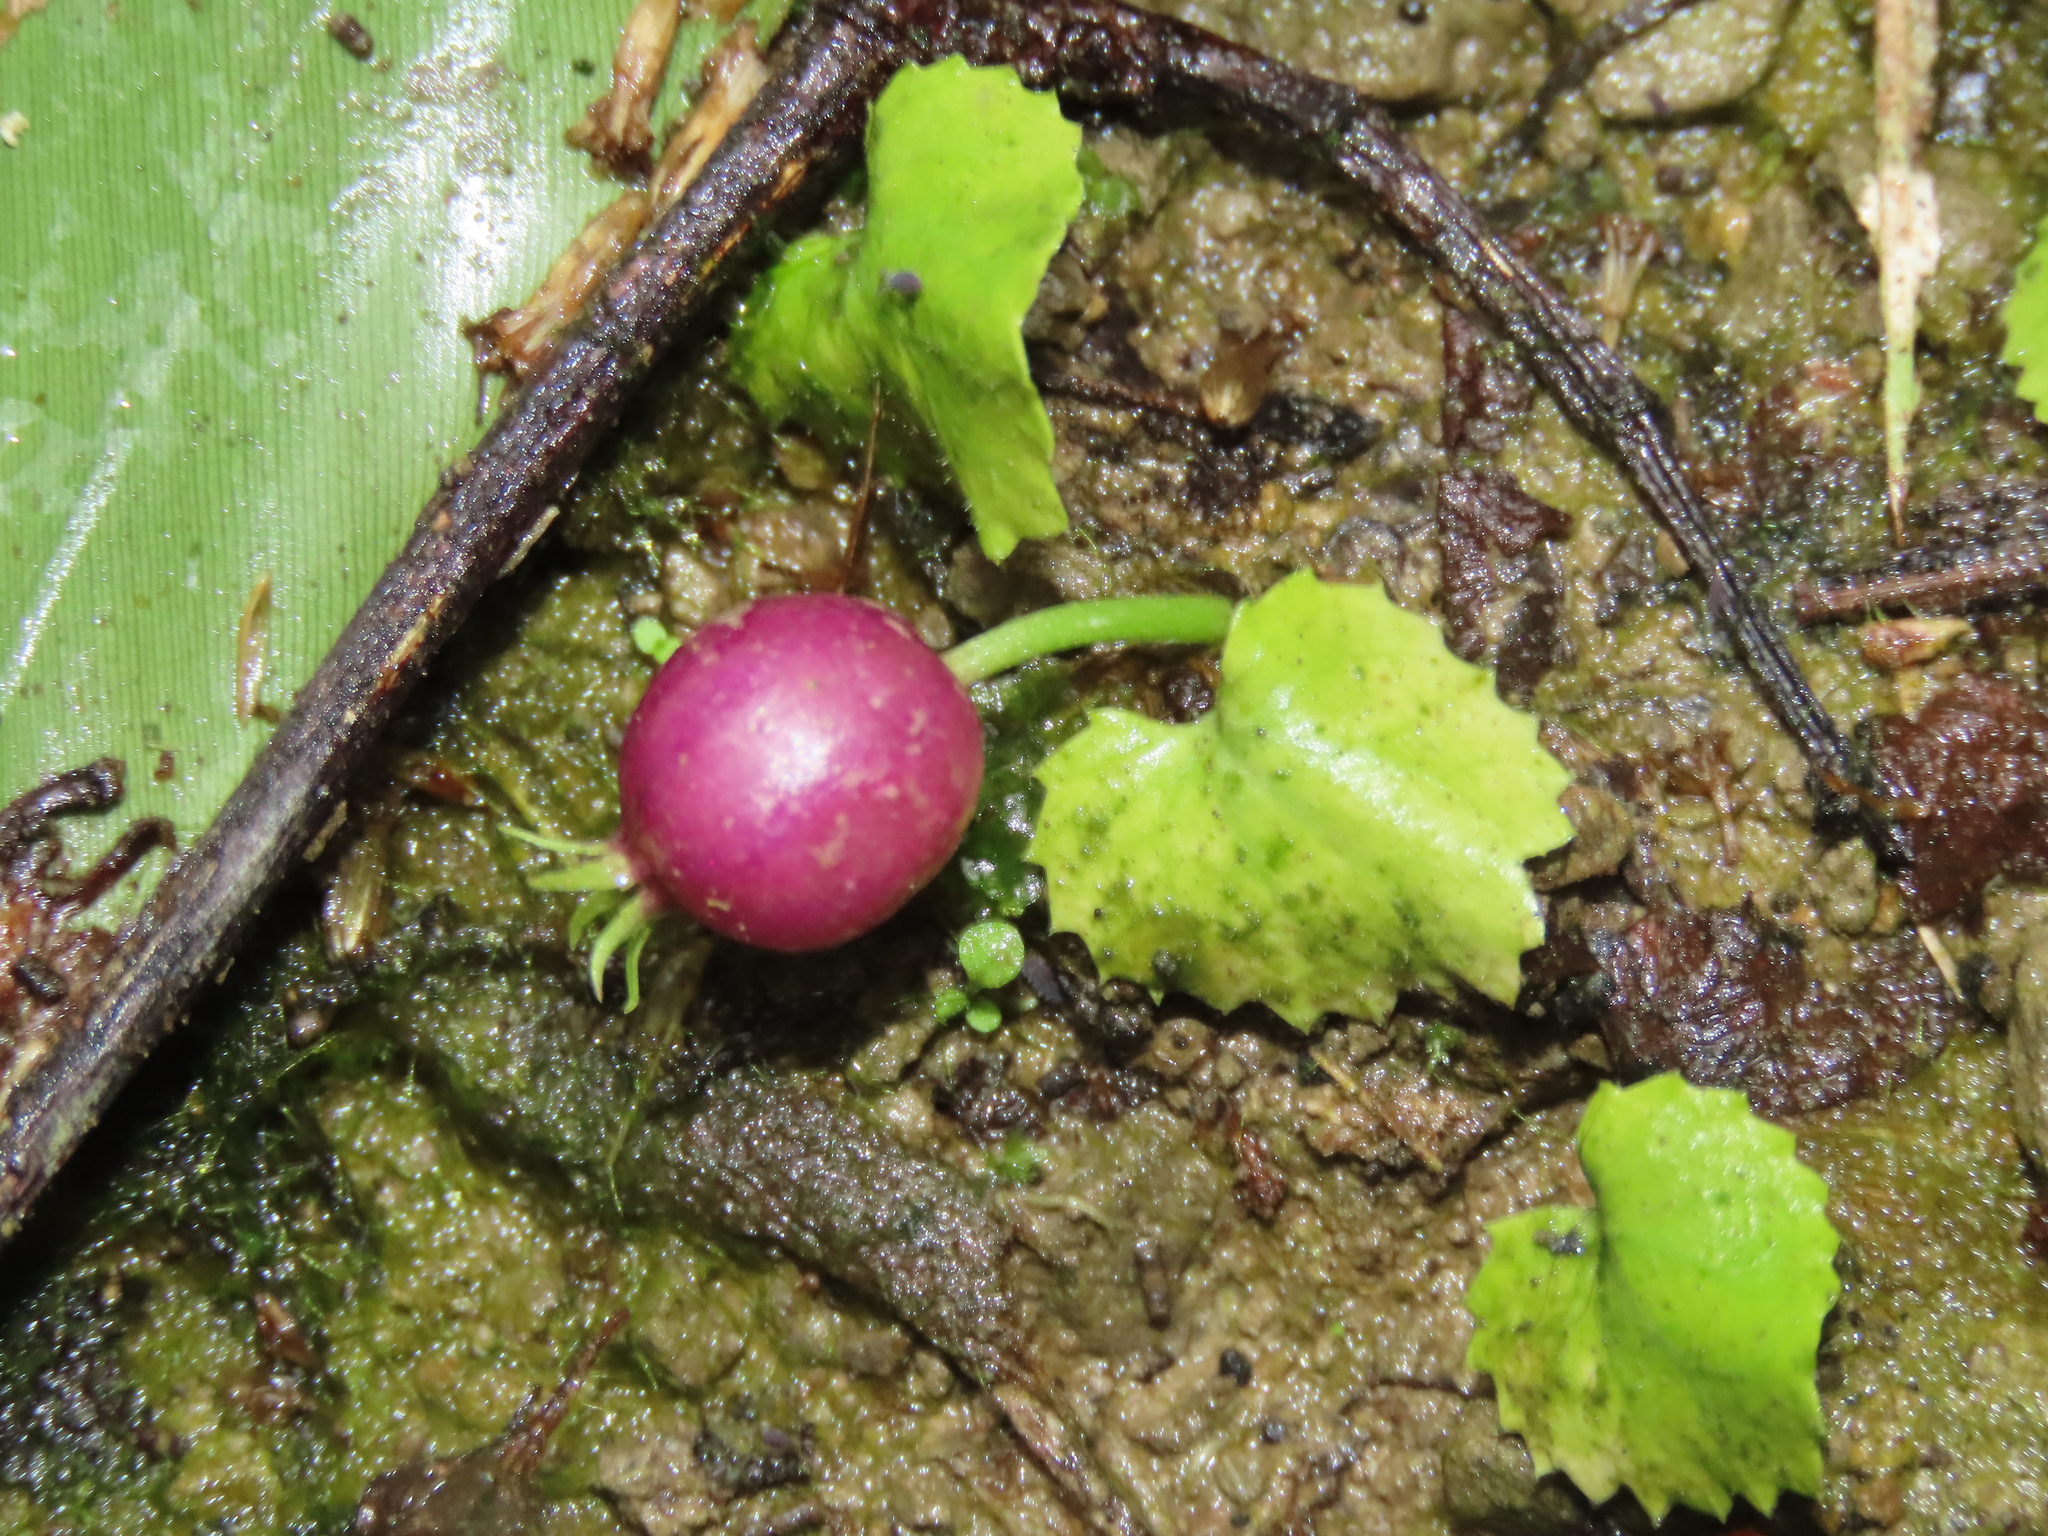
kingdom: Plantae
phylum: Tracheophyta
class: Magnoliopsida
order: Asterales
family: Campanulaceae
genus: Lobelia
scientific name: Lobelia nummularia
